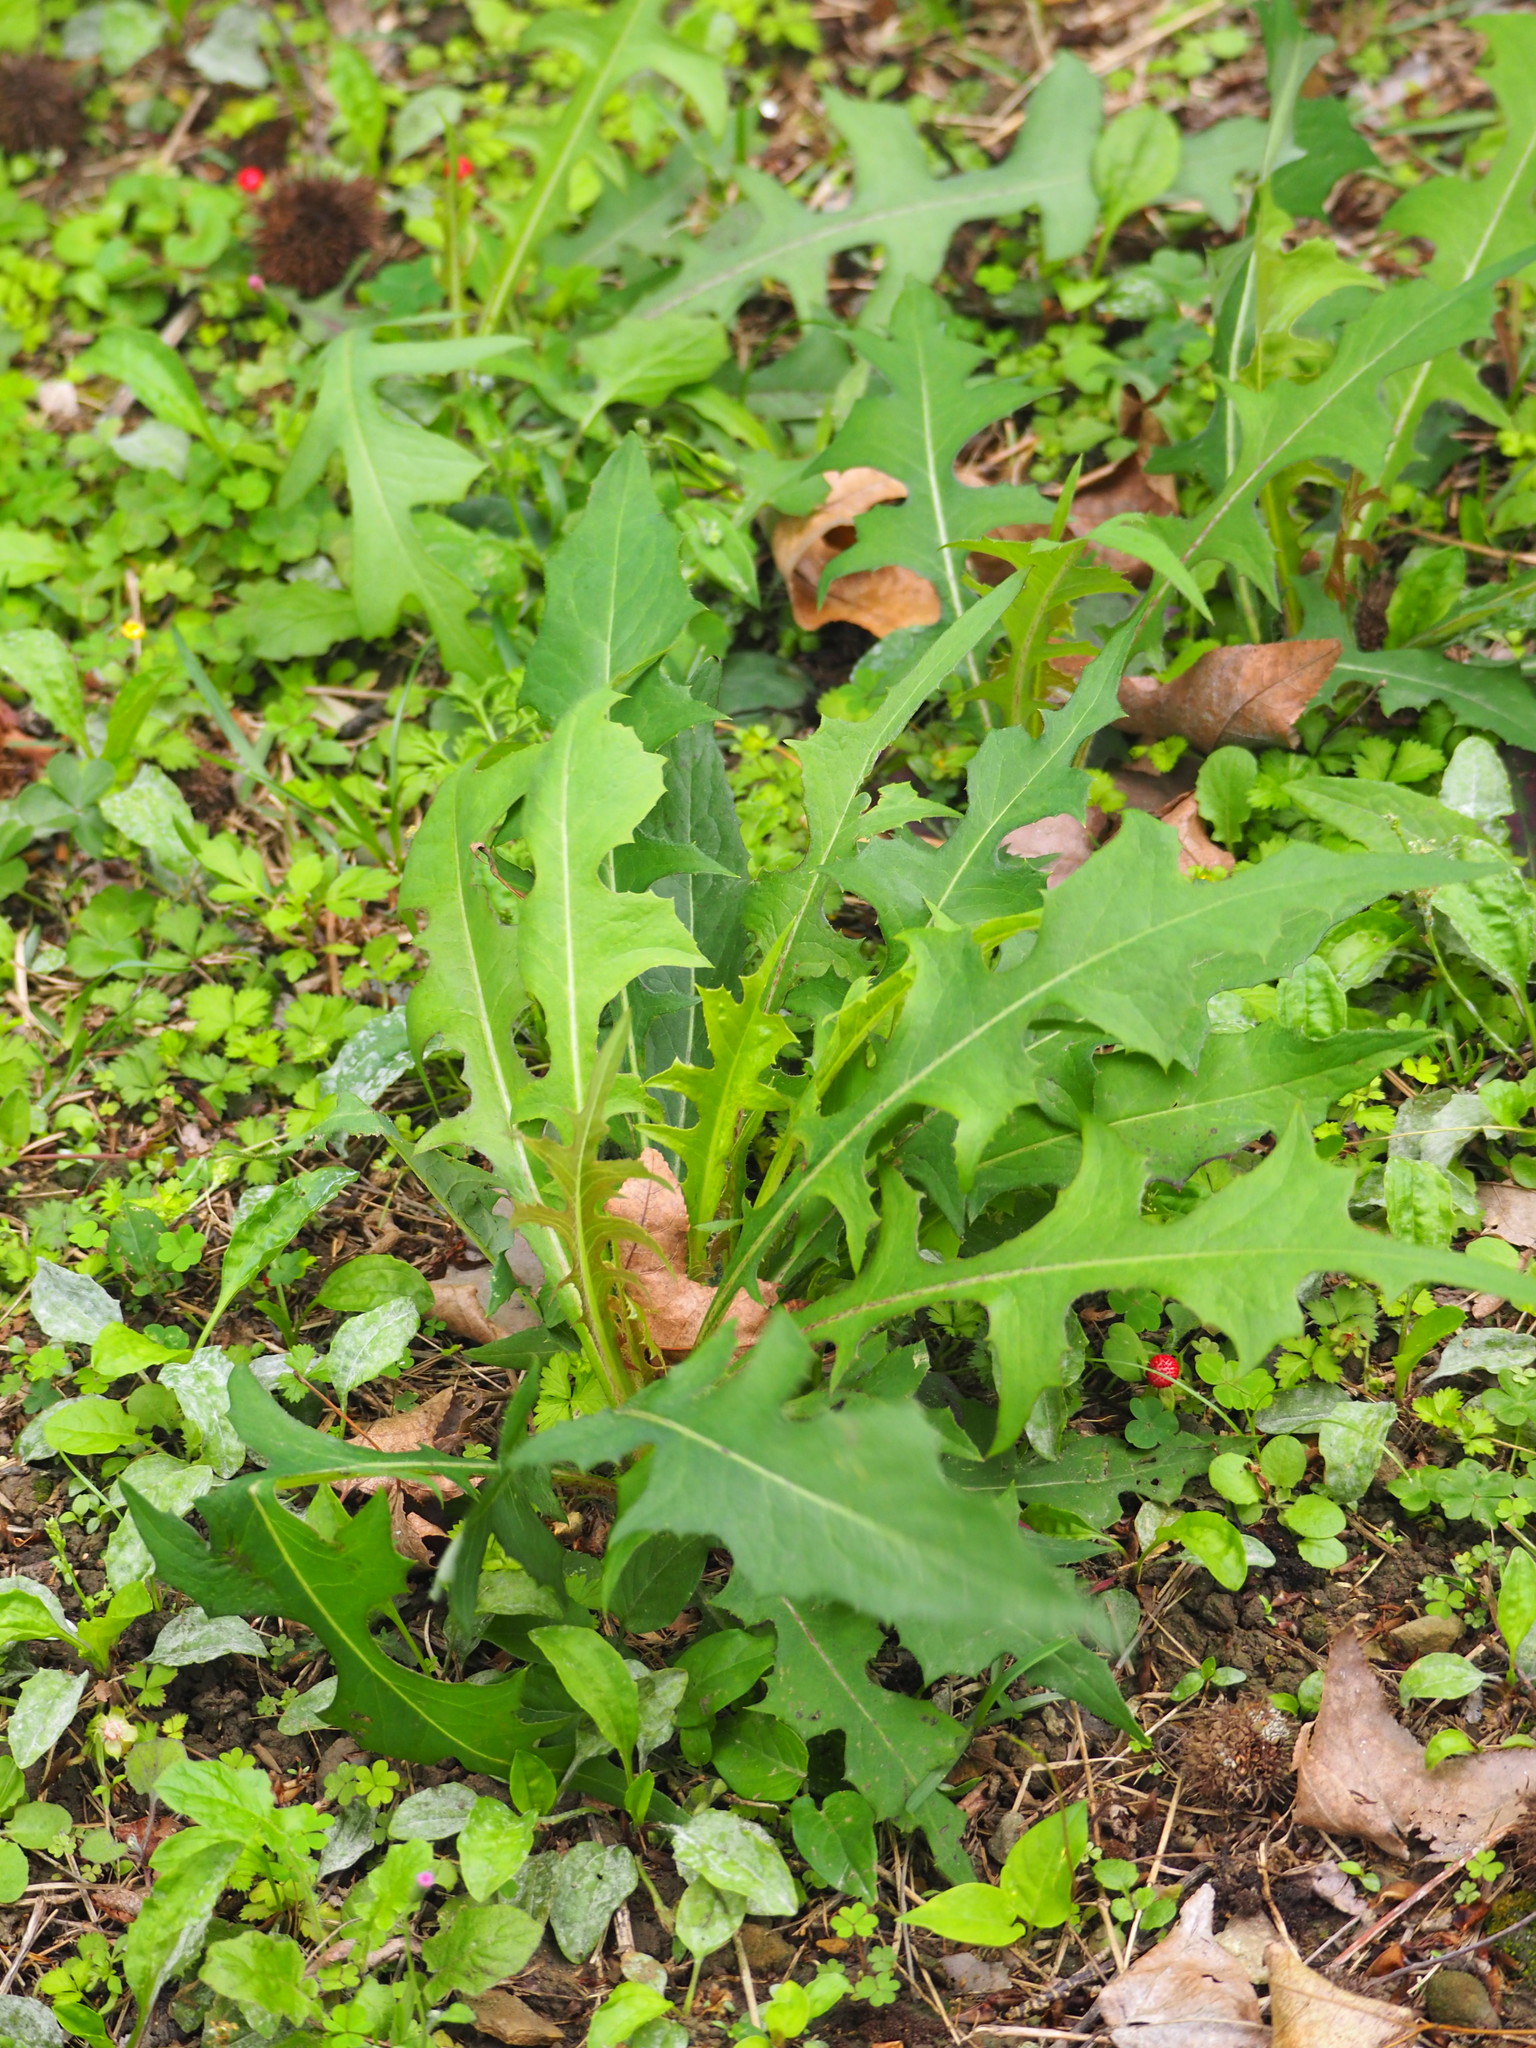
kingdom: Plantae
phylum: Tracheophyta
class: Magnoliopsida
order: Asterales
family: Asteraceae
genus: Lactuca
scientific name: Lactuca indica
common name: Wild lettuce
